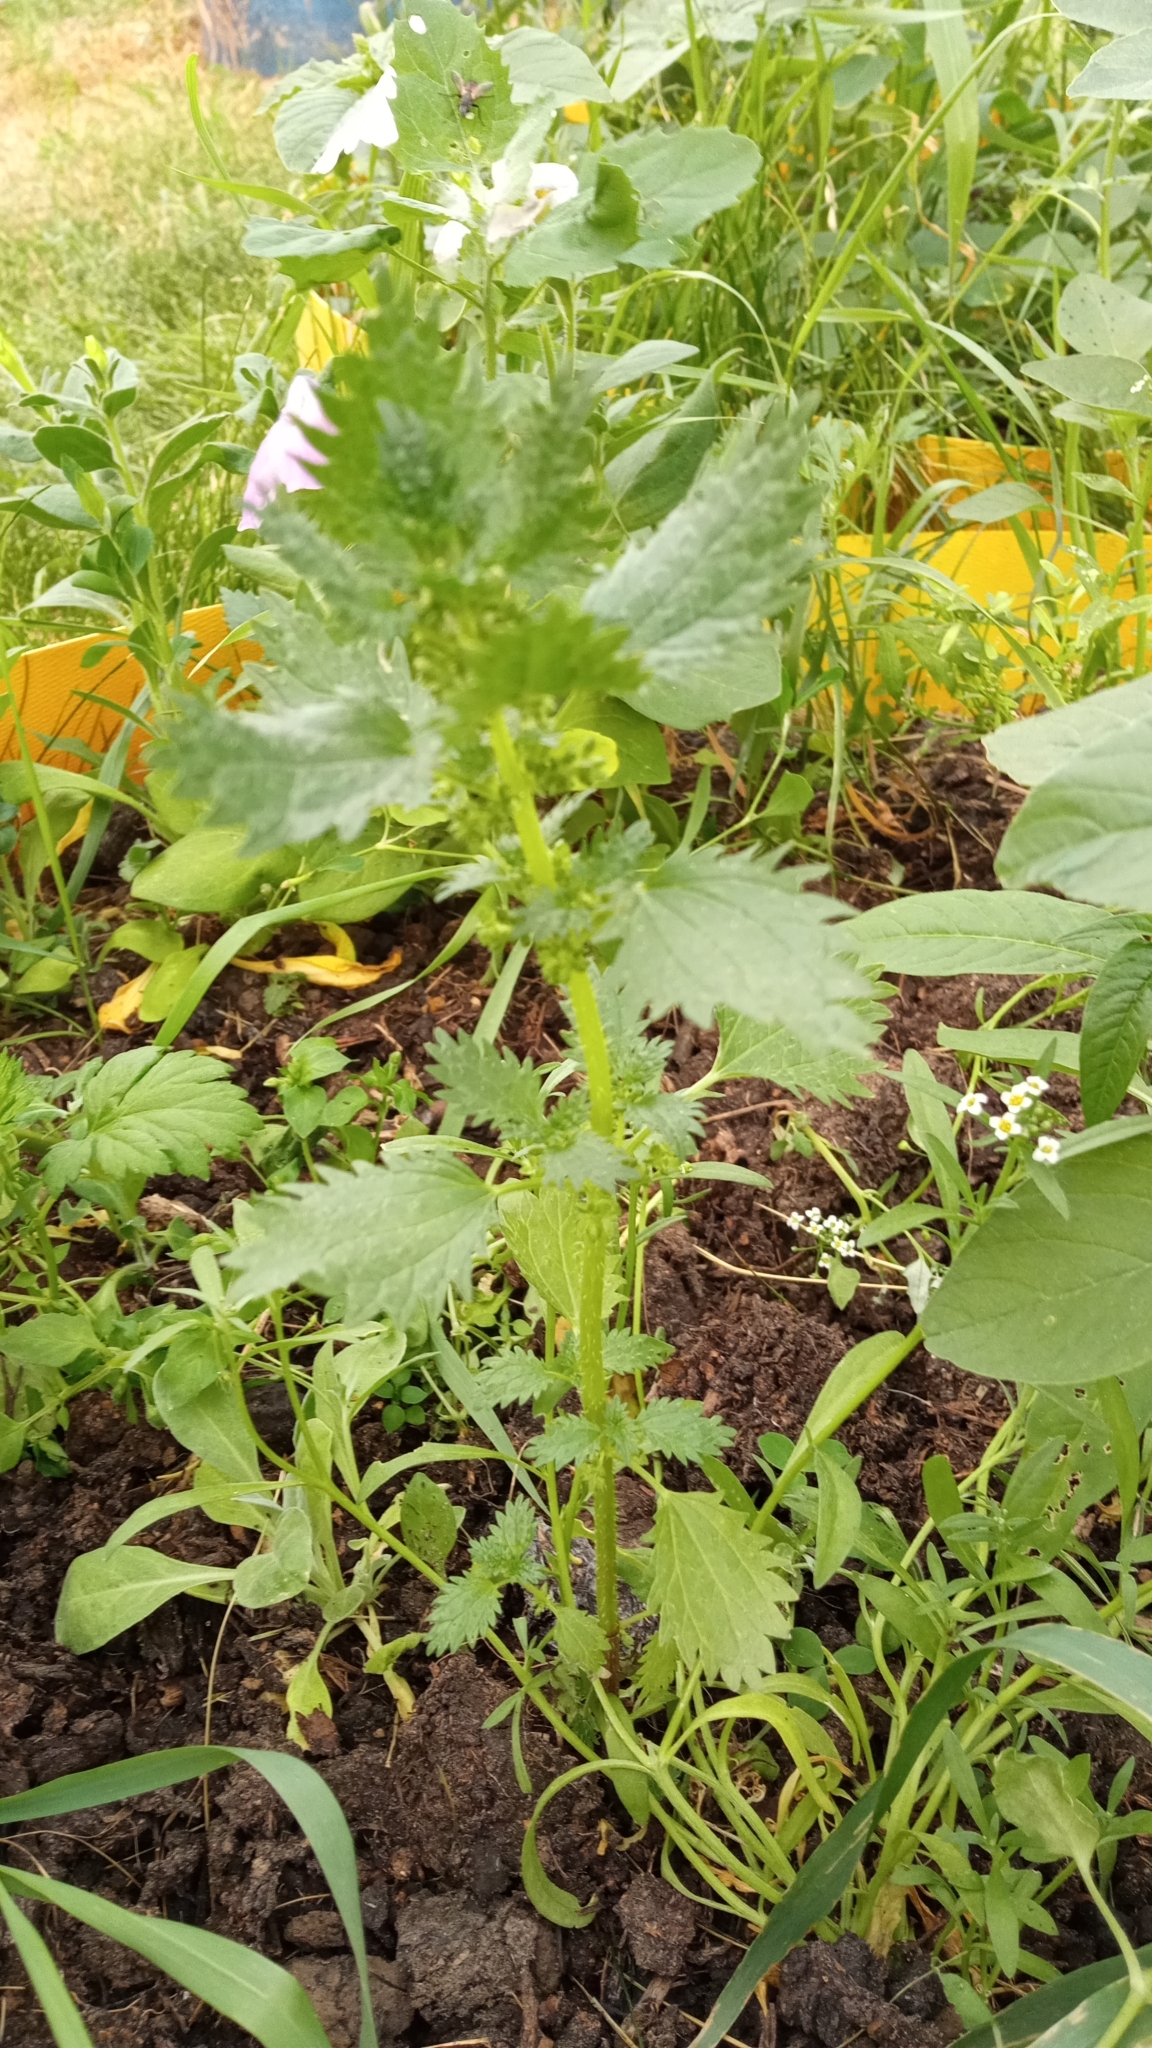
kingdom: Plantae
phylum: Tracheophyta
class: Magnoliopsida
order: Rosales
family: Urticaceae
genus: Urtica
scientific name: Urtica urens
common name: Dwarf nettle
